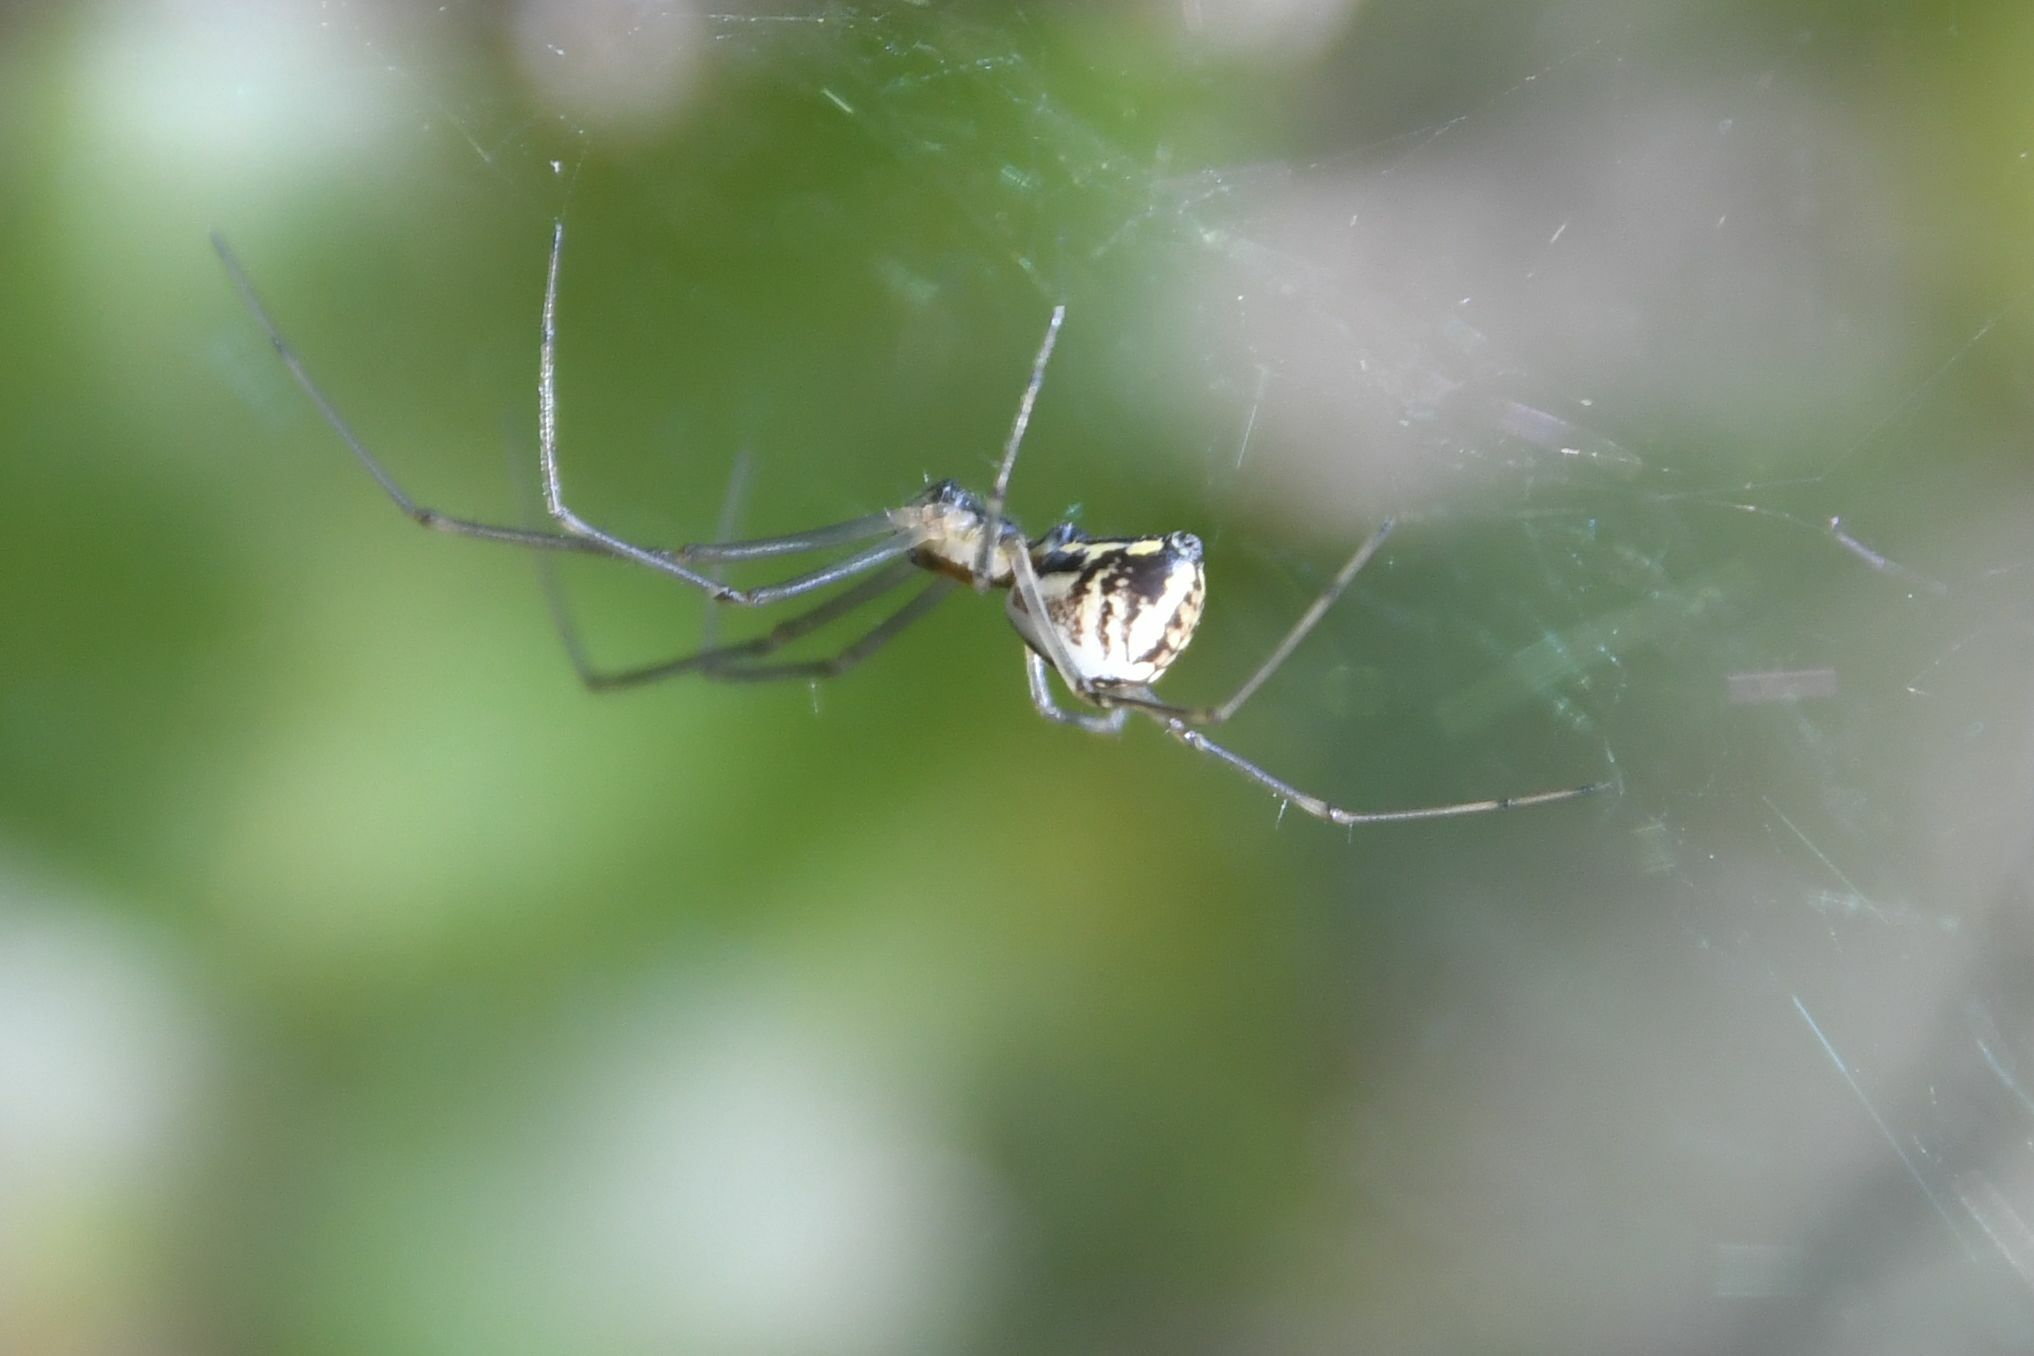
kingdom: Animalia
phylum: Arthropoda
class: Arachnida
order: Araneae
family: Linyphiidae
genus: Neriene
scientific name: Neriene radiata
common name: Filmy dome spider
